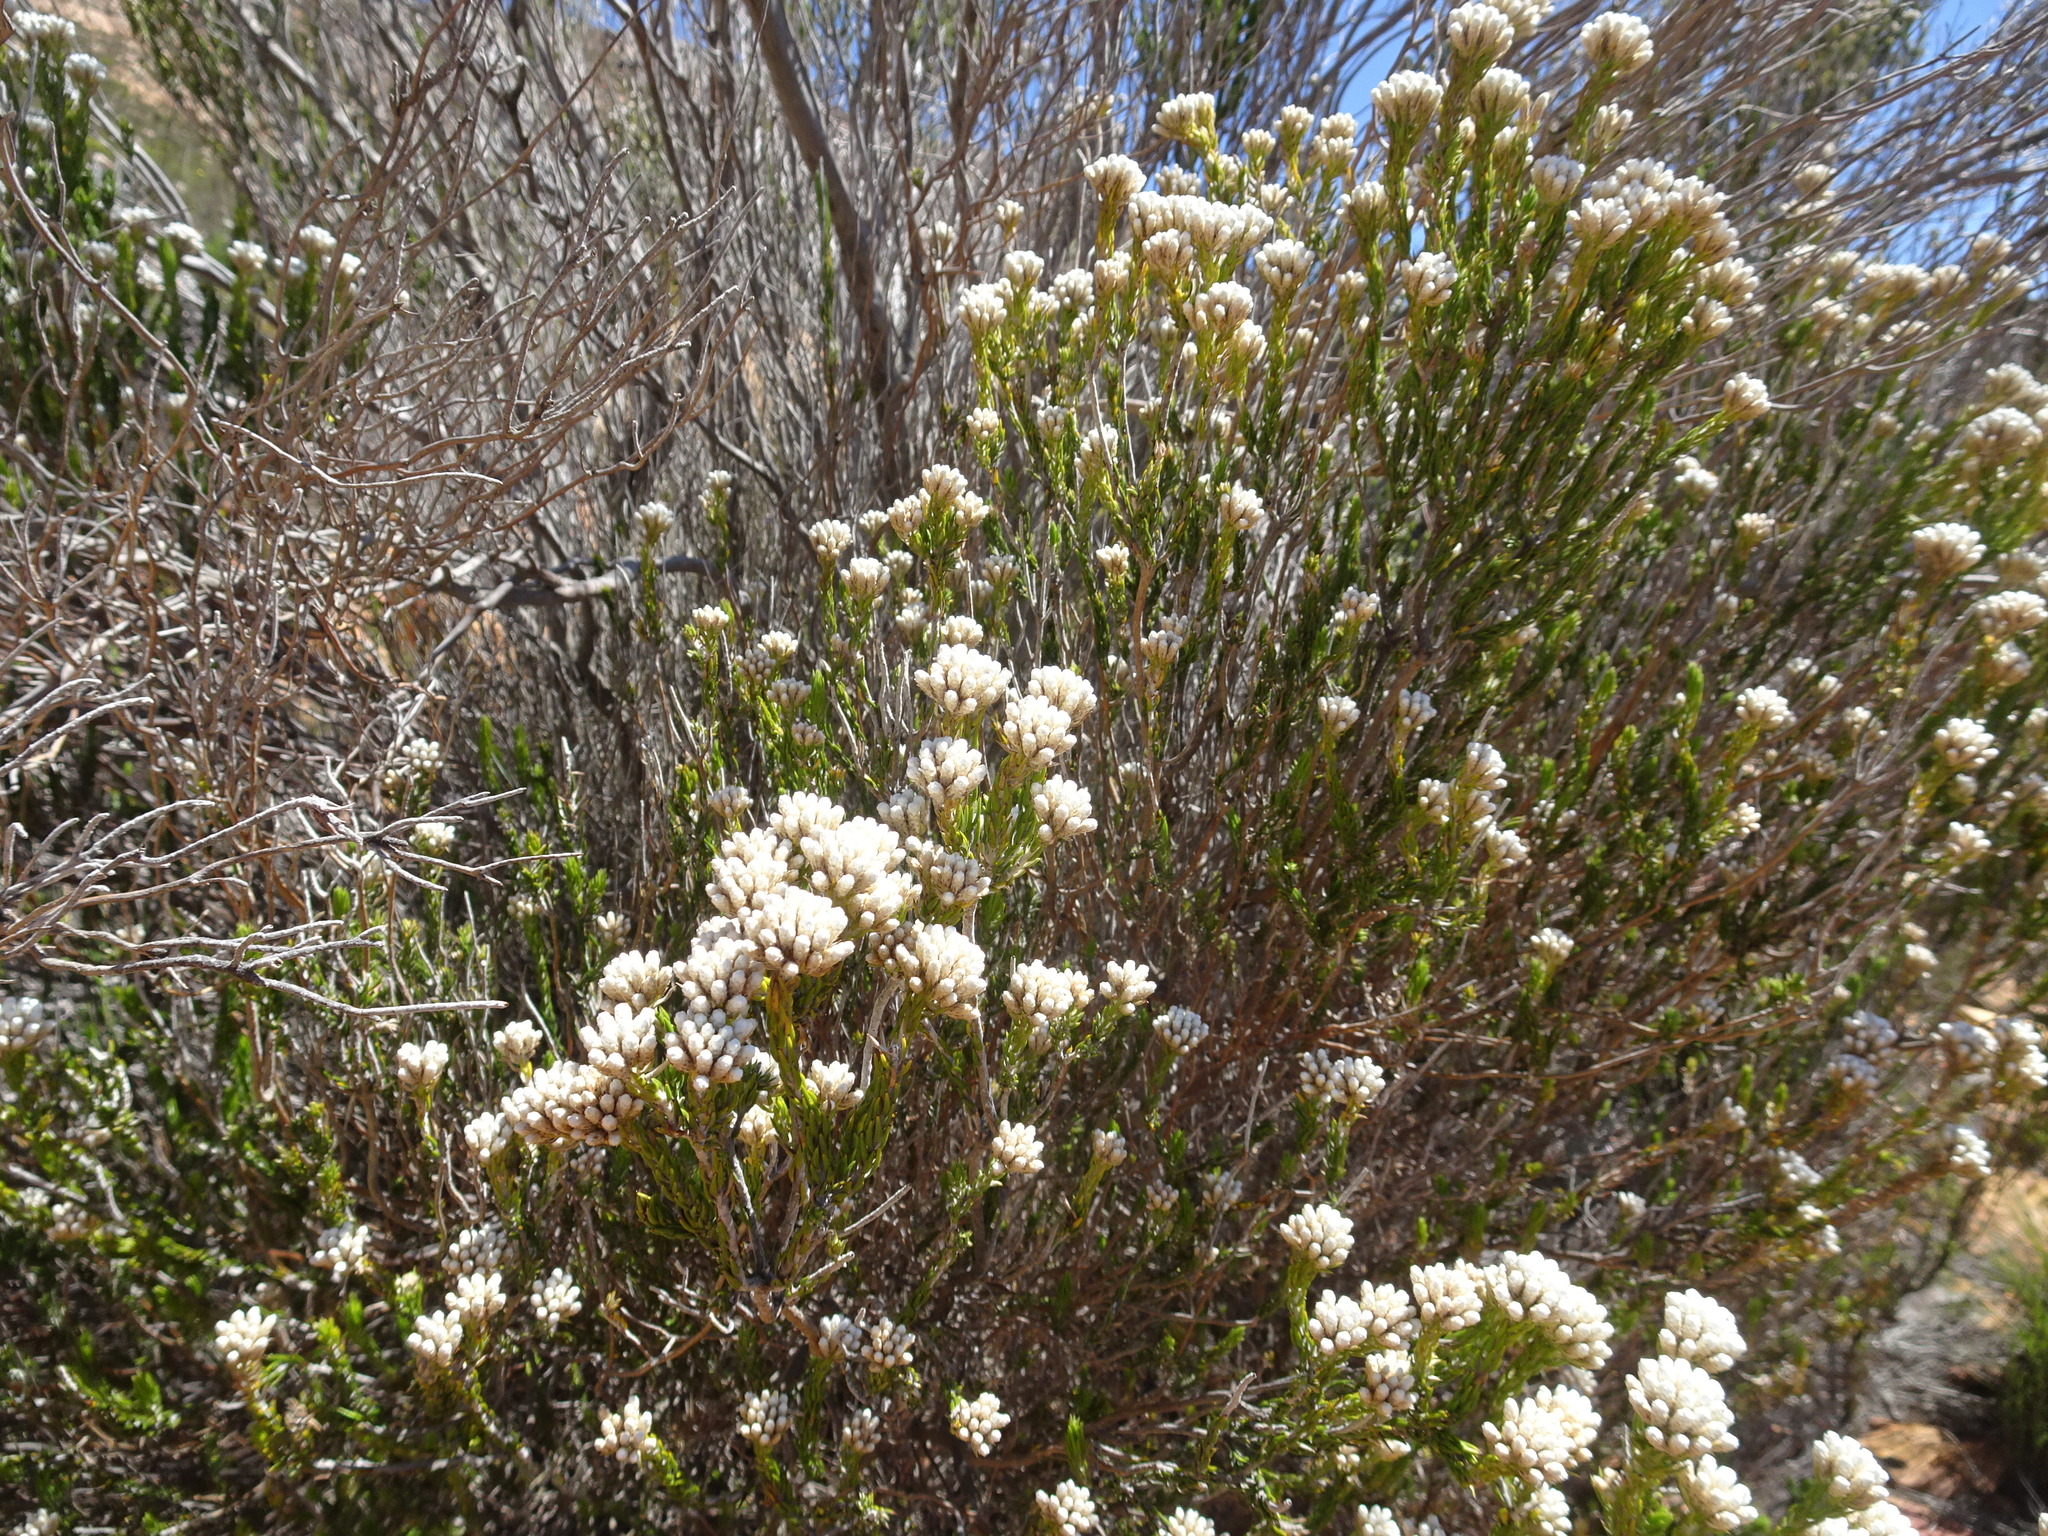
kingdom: Plantae
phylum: Tracheophyta
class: Magnoliopsida
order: Asterales
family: Asteraceae
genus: Metalasia
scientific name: Metalasia pallida
